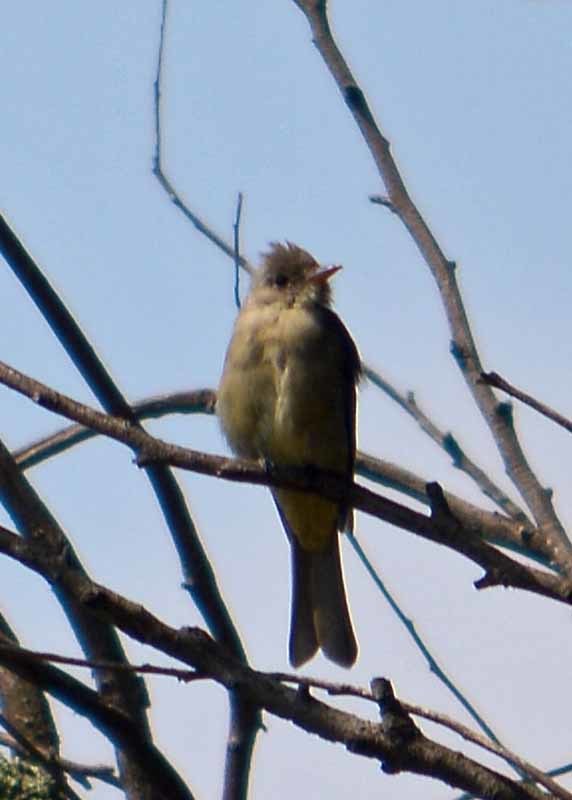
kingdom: Animalia
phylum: Chordata
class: Aves
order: Passeriformes
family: Tyrannidae
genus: Contopus
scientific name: Contopus pertinax
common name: Greater pewee
